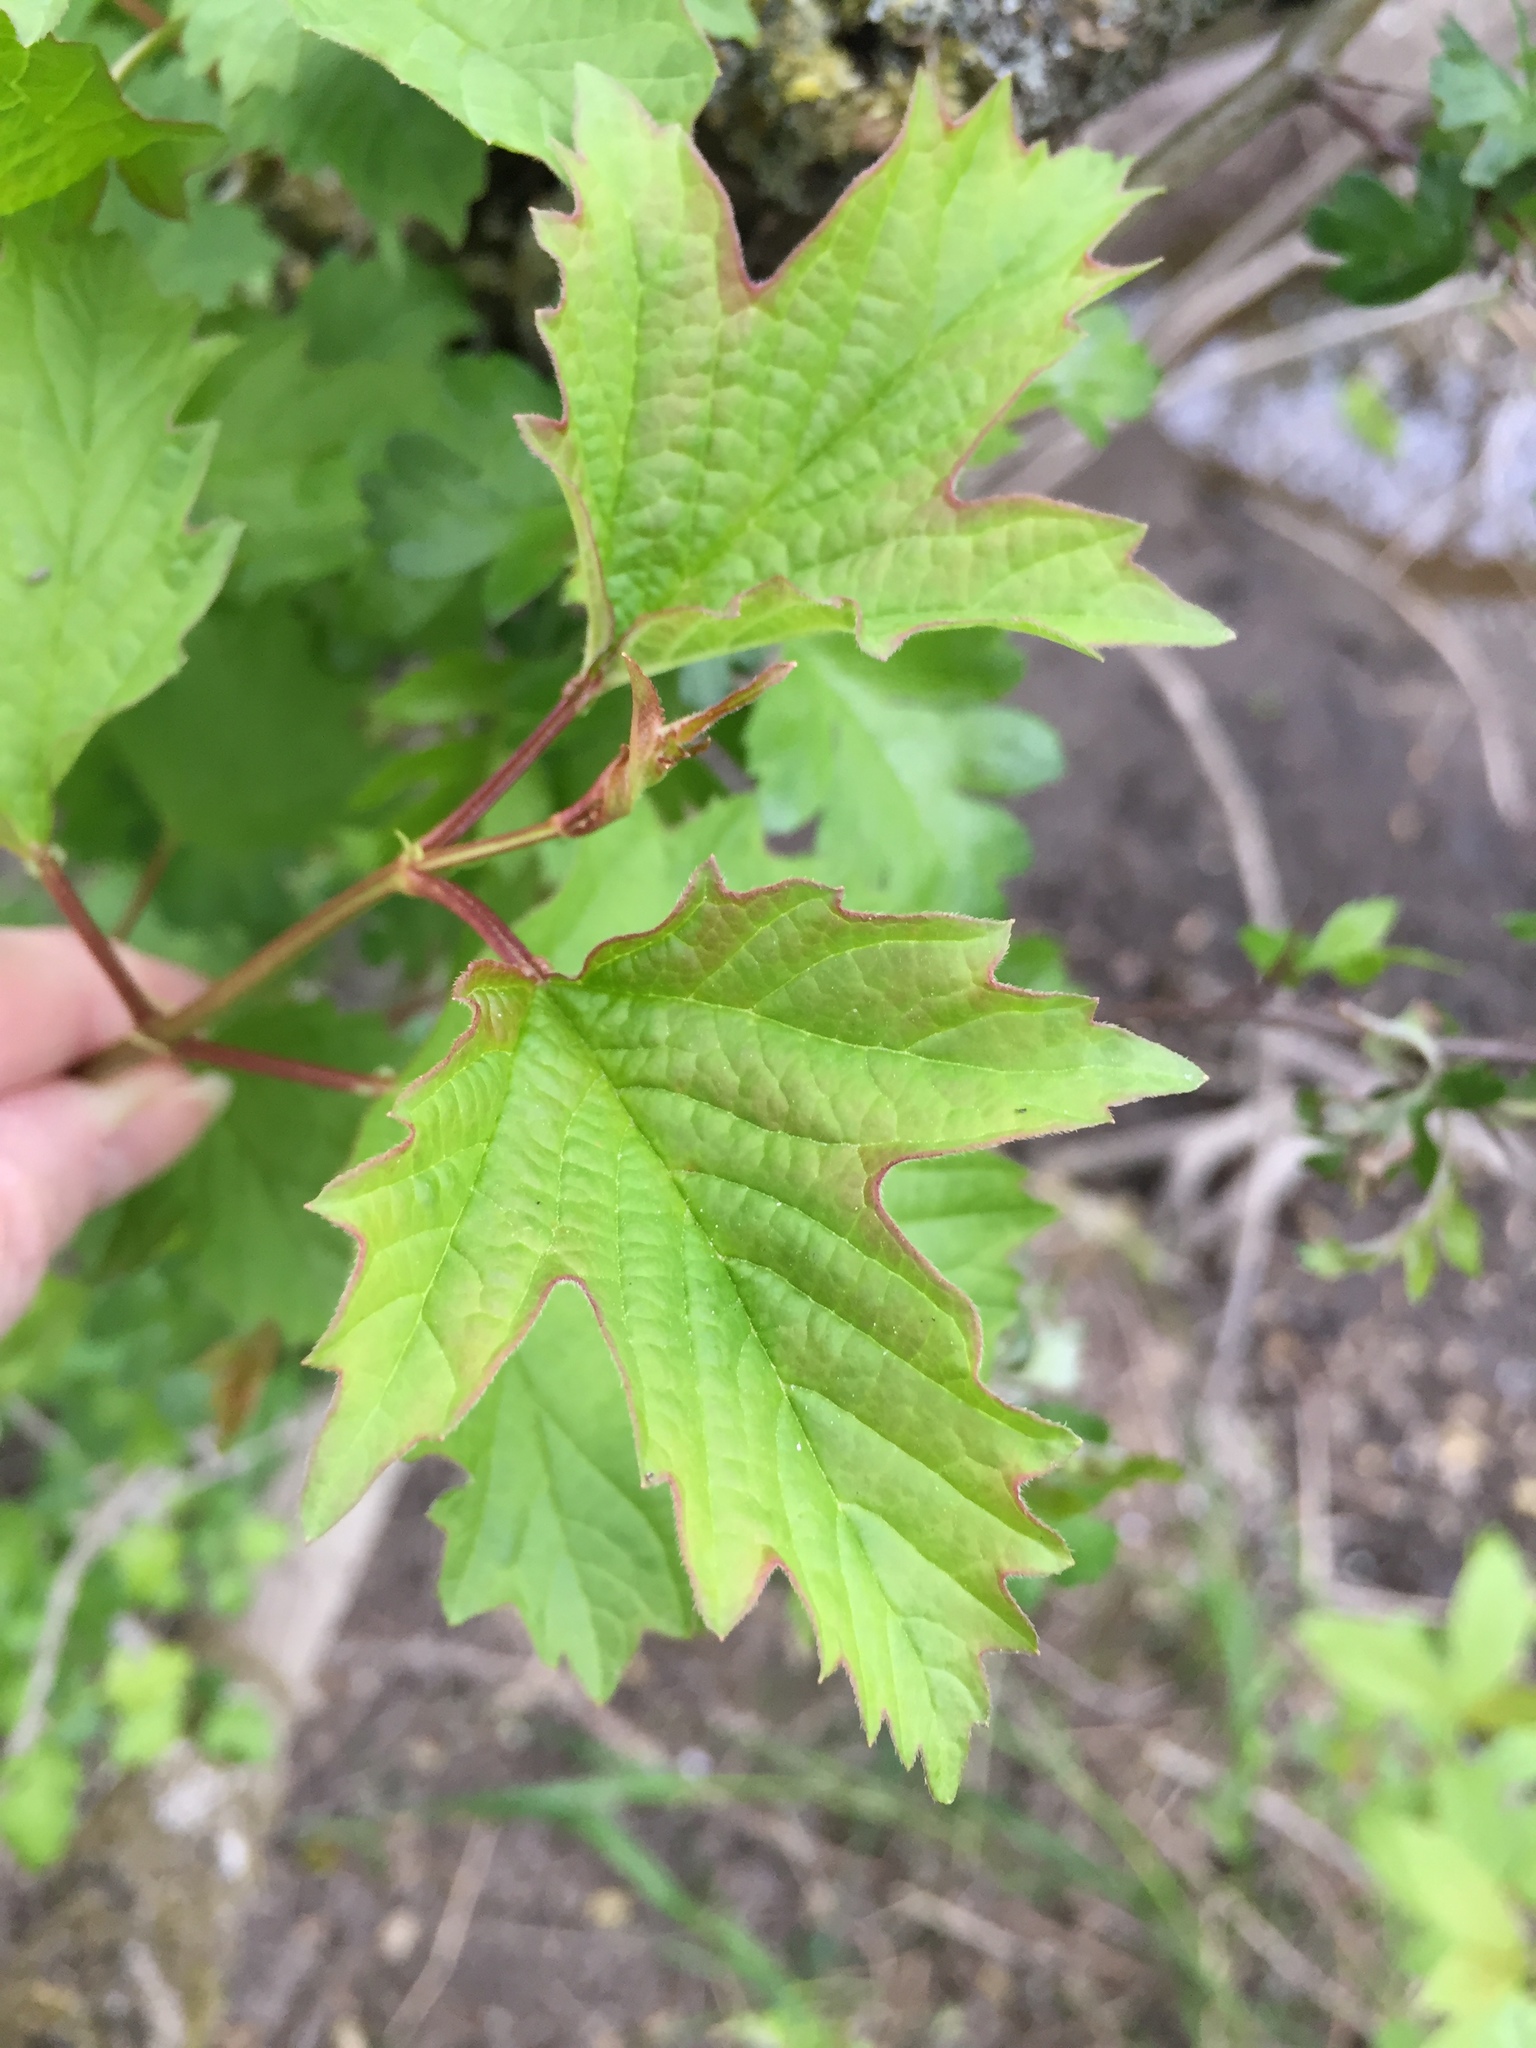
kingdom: Plantae
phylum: Tracheophyta
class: Magnoliopsida
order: Dipsacales
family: Viburnaceae
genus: Viburnum
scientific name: Viburnum opulus
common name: Guelder-rose
